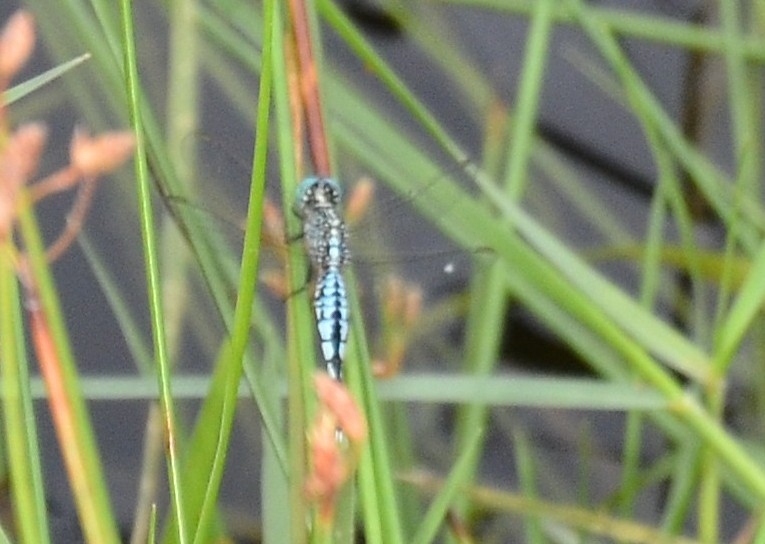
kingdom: Animalia
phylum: Arthropoda
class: Insecta
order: Odonata
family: Libellulidae
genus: Acisoma
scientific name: Acisoma panorpoides
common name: Asian pintail
